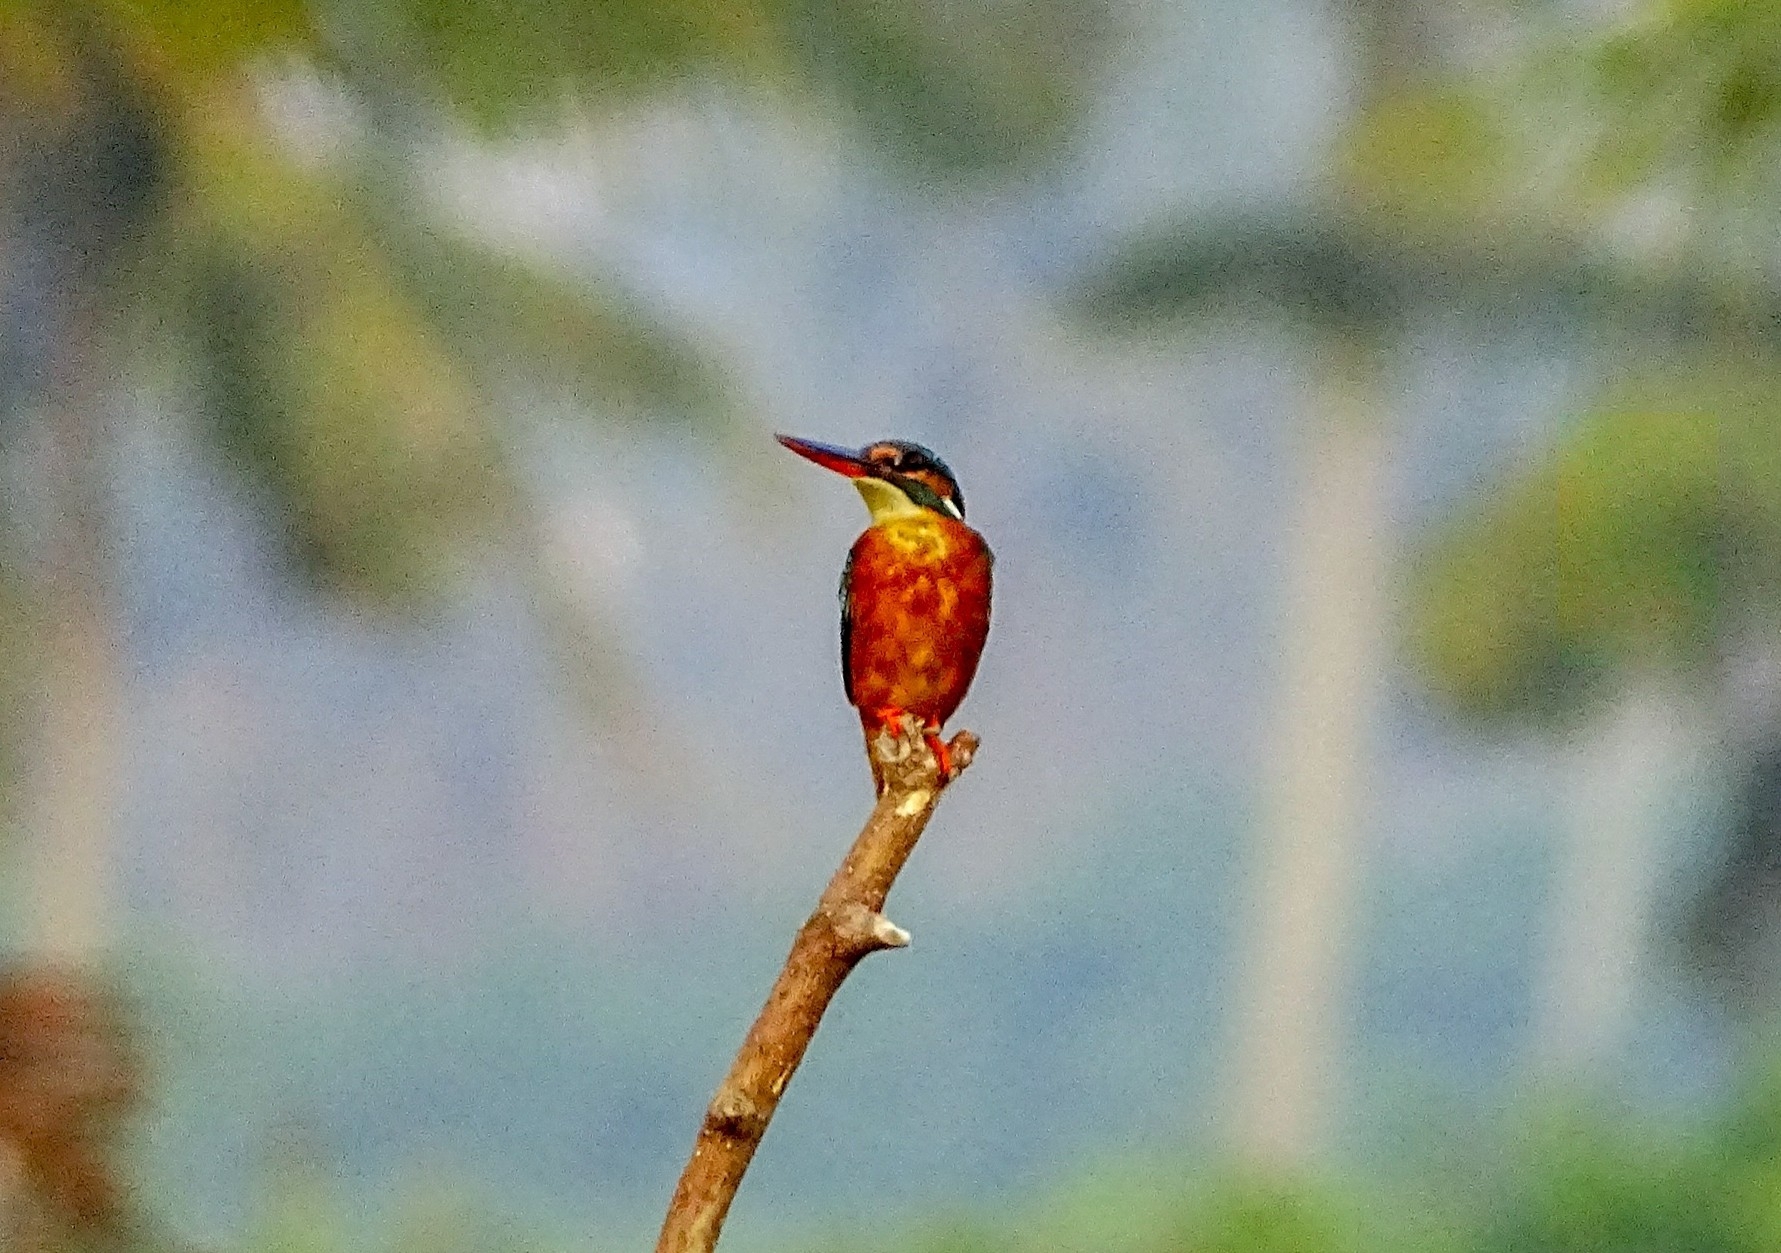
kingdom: Animalia
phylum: Chordata
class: Aves
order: Coraciiformes
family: Alcedinidae
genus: Alcedo
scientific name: Alcedo atthis
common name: Common kingfisher
